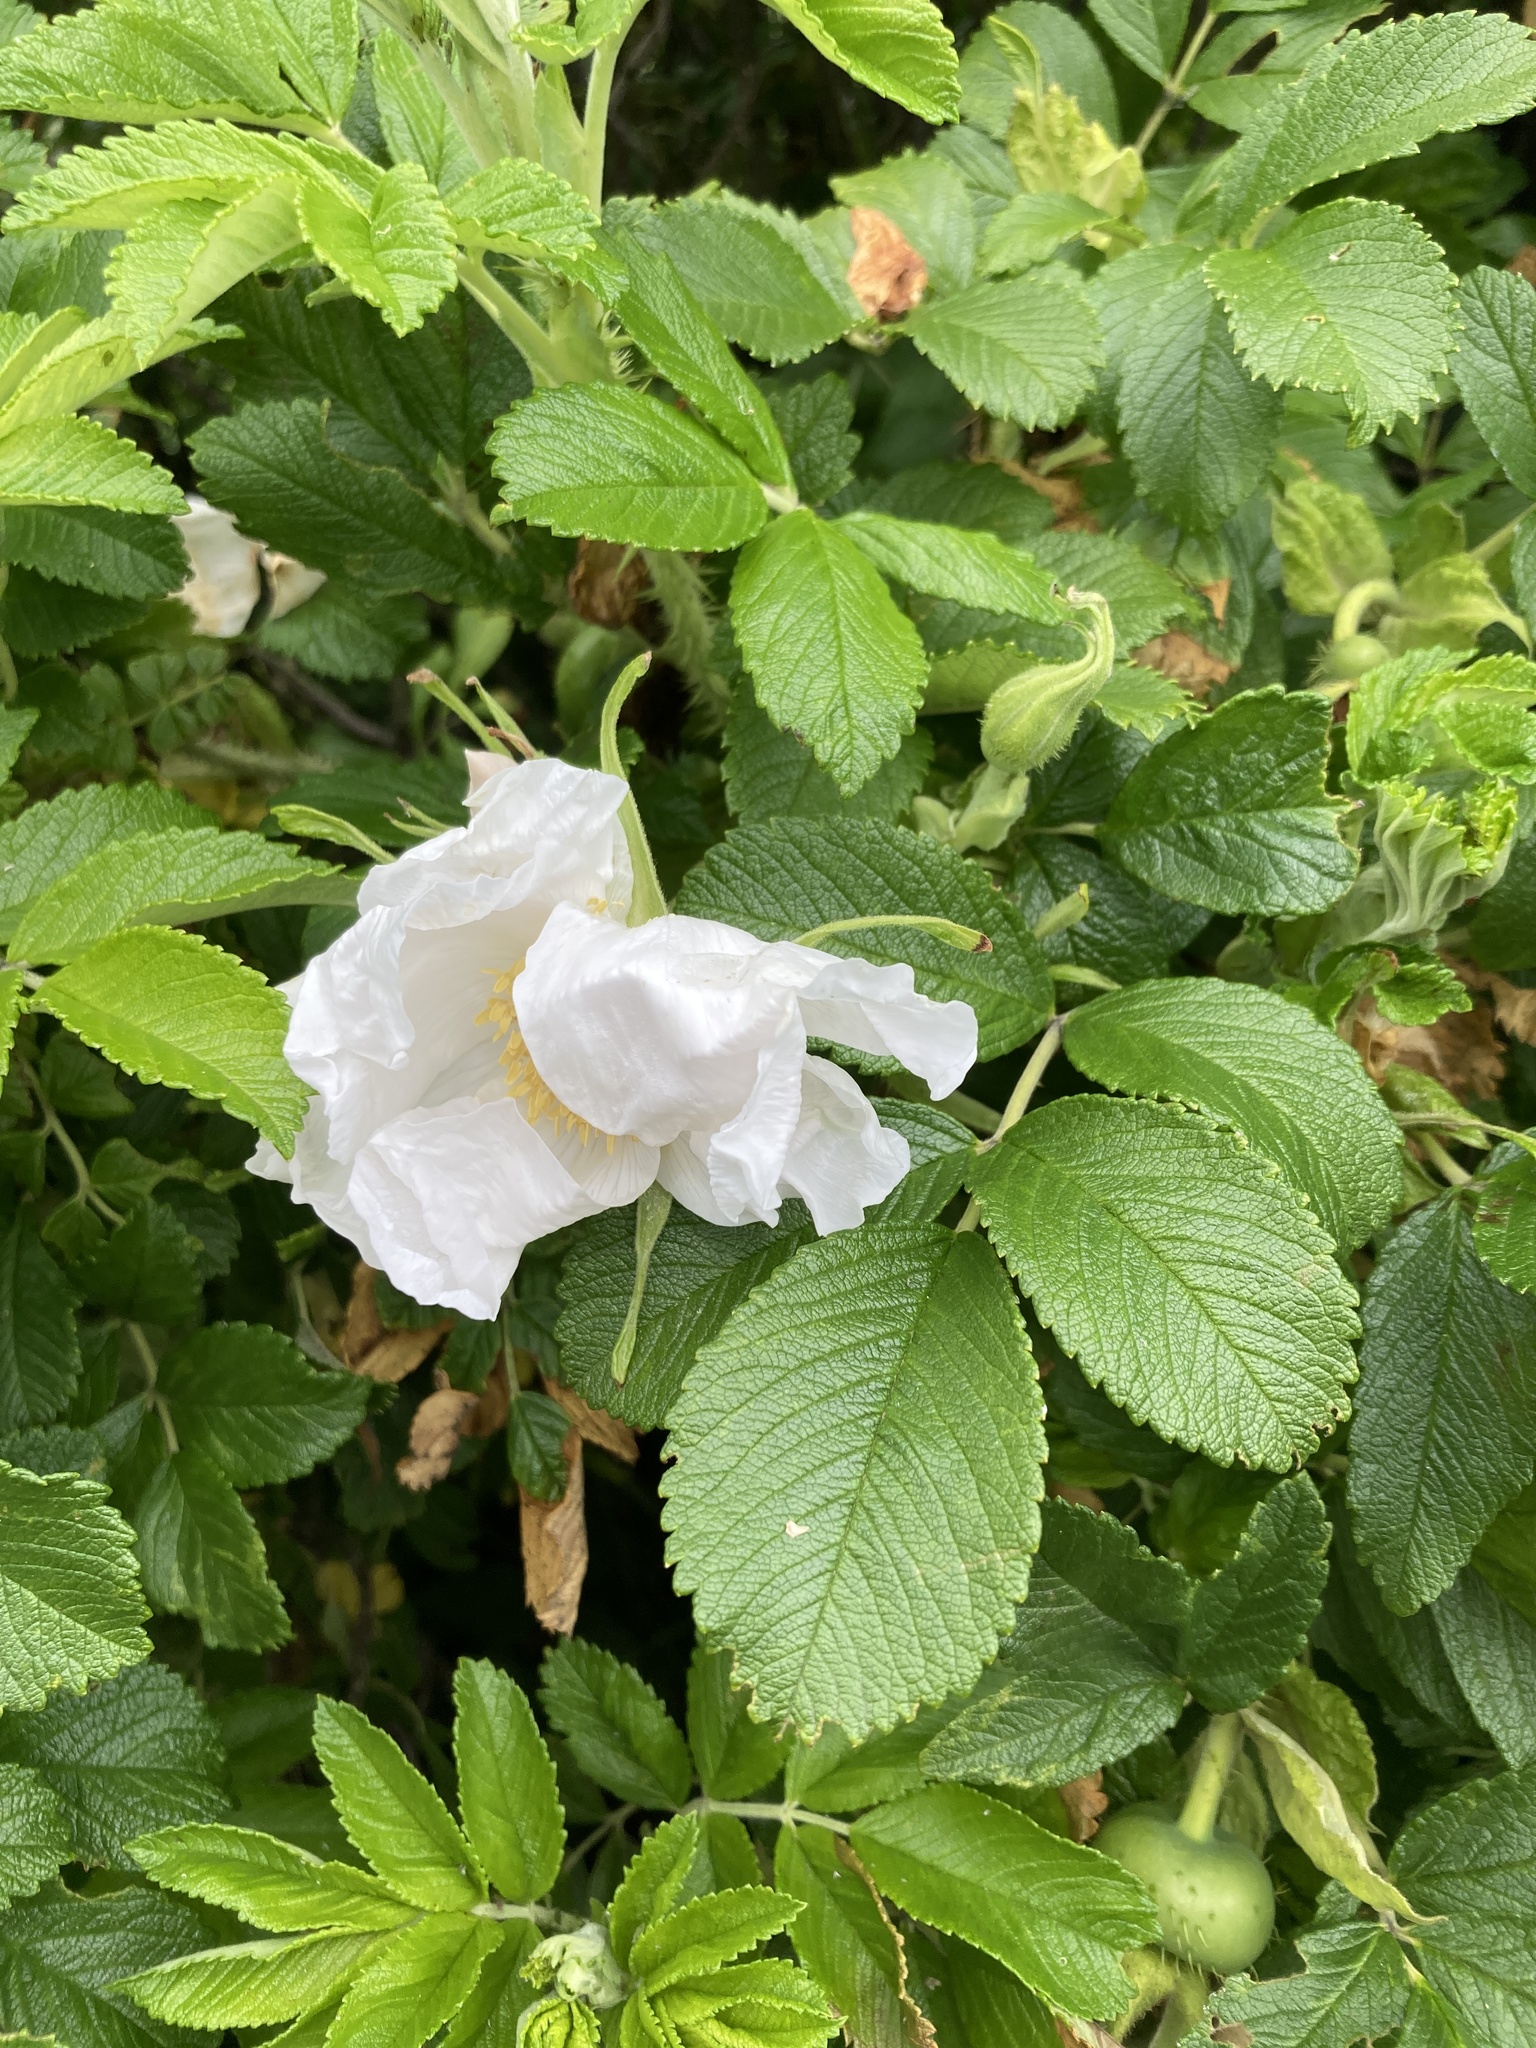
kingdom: Plantae
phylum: Tracheophyta
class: Magnoliopsida
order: Rosales
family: Rosaceae
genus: Rosa
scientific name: Rosa rugosa
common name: Japanese rose
